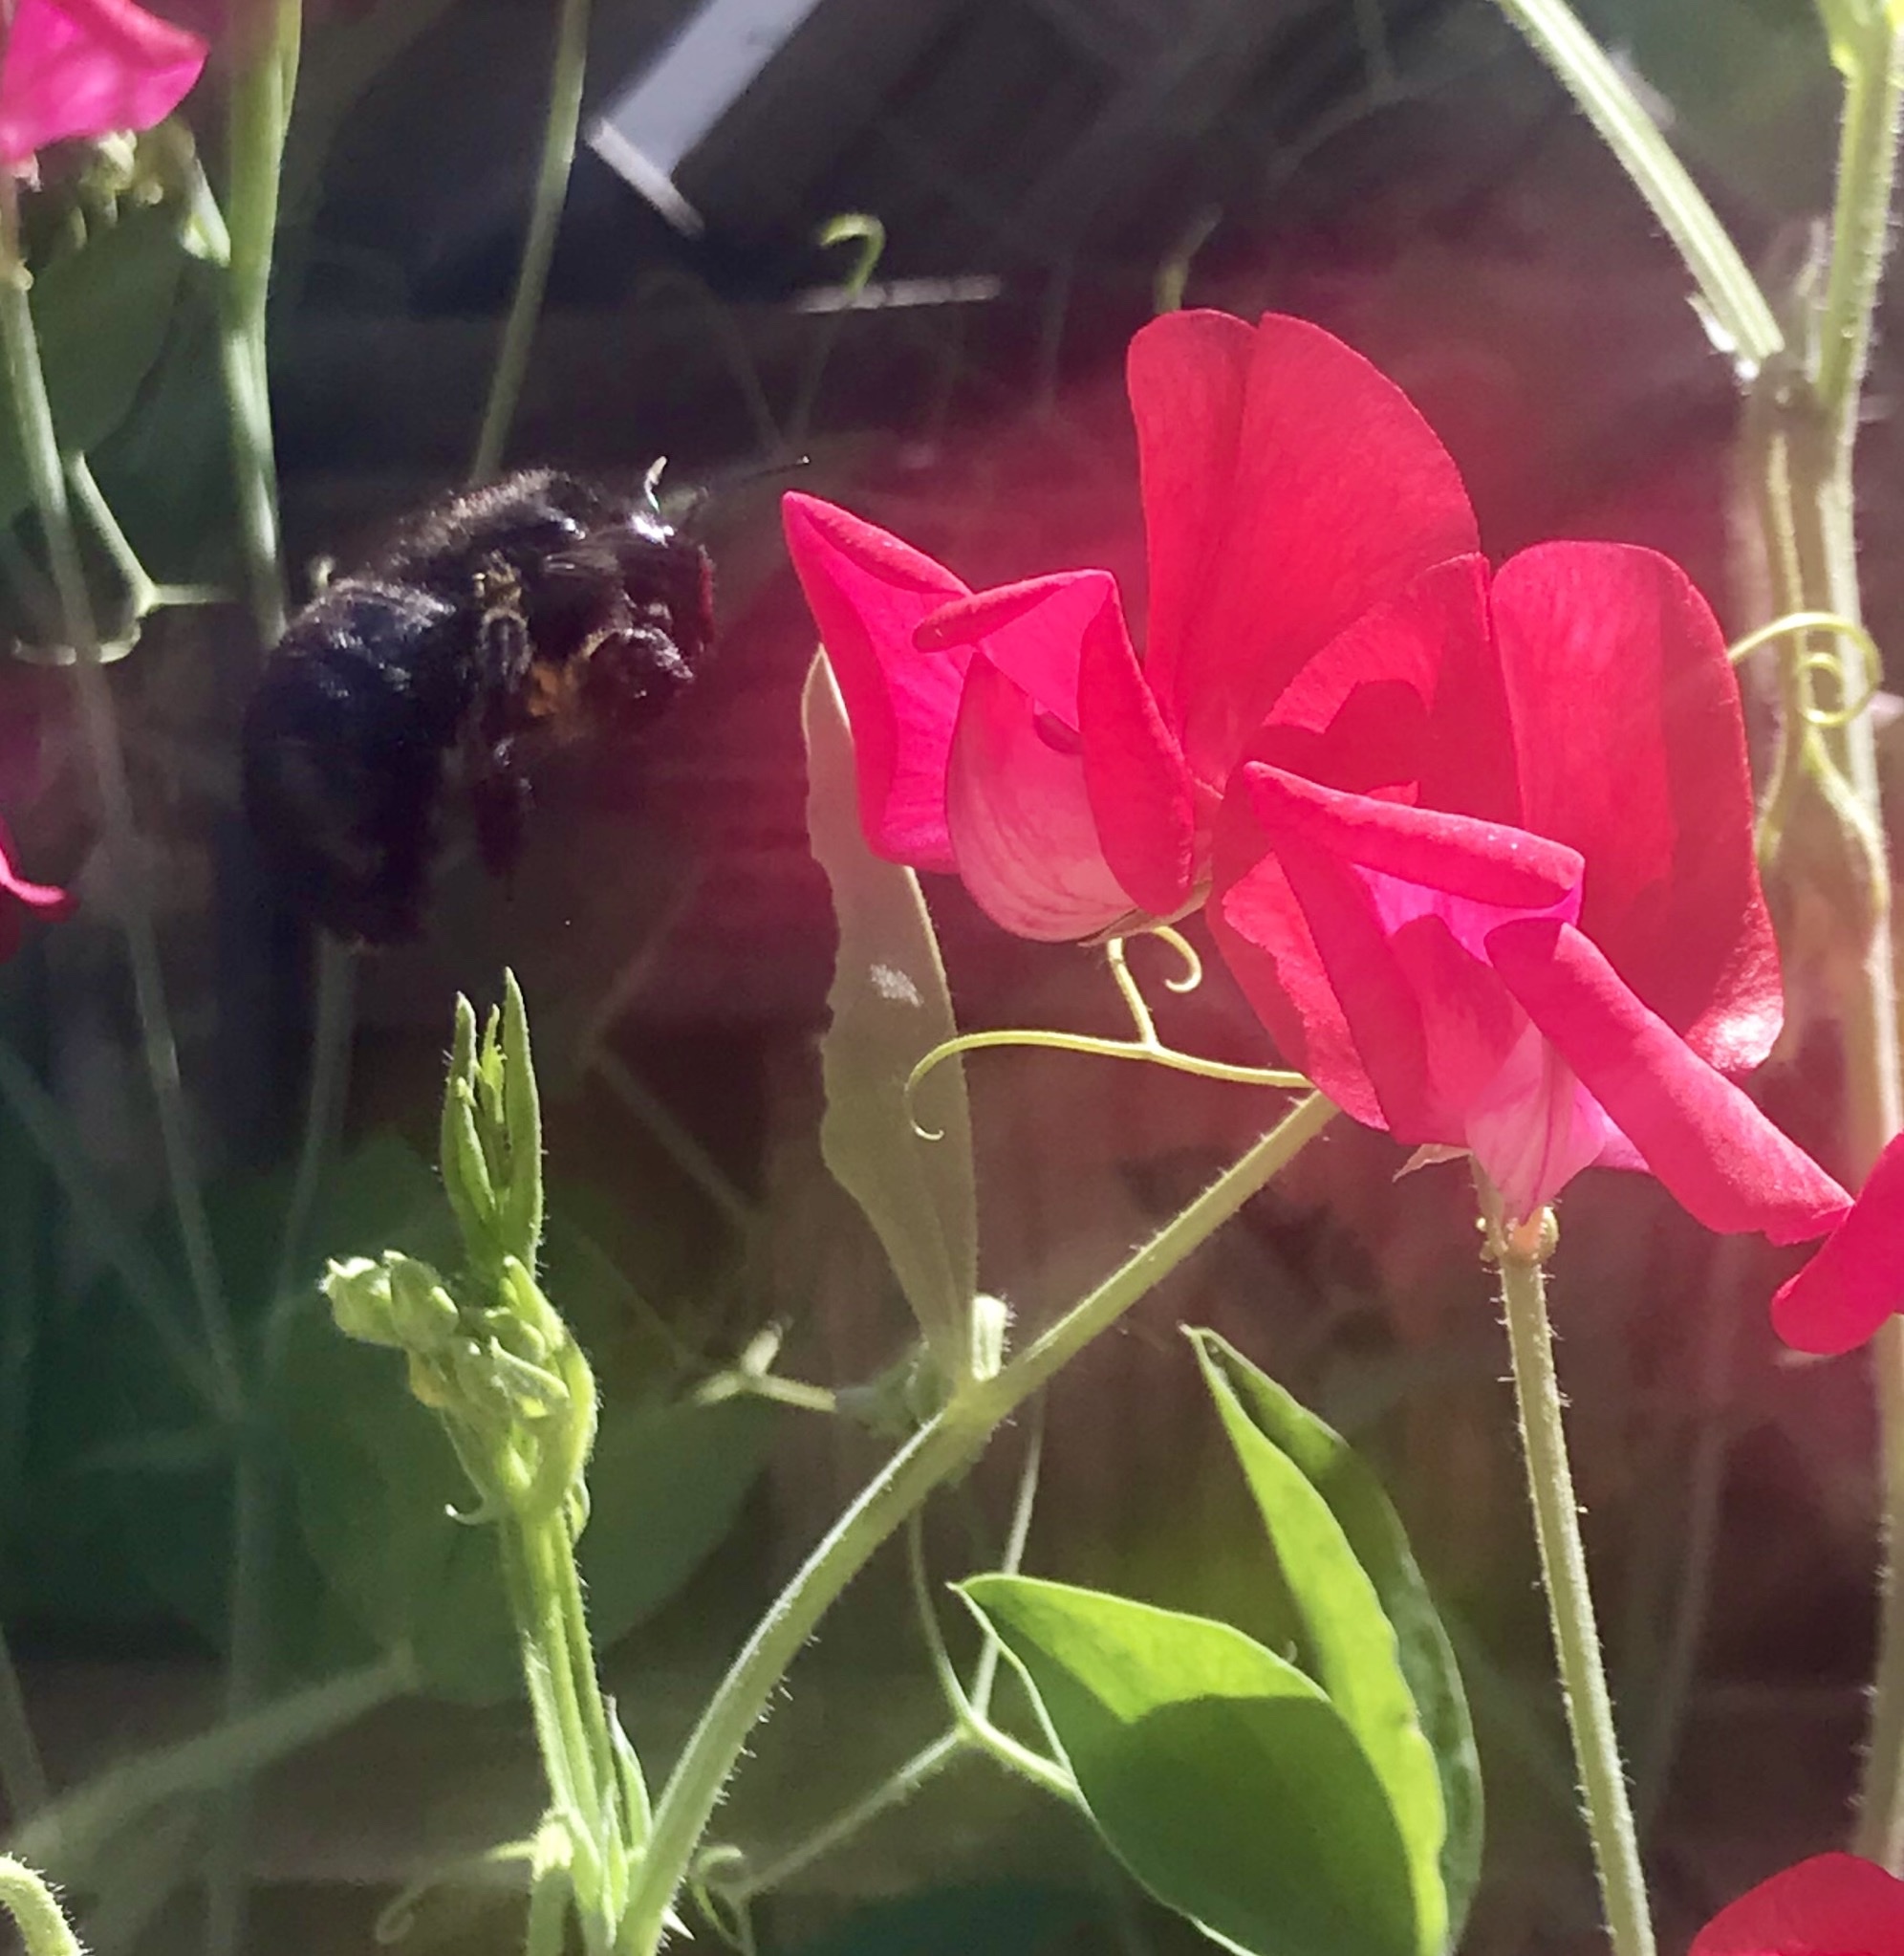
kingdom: Animalia
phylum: Arthropoda
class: Insecta
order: Hymenoptera
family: Apidae
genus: Xylocopa
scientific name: Xylocopa tabaniformis
